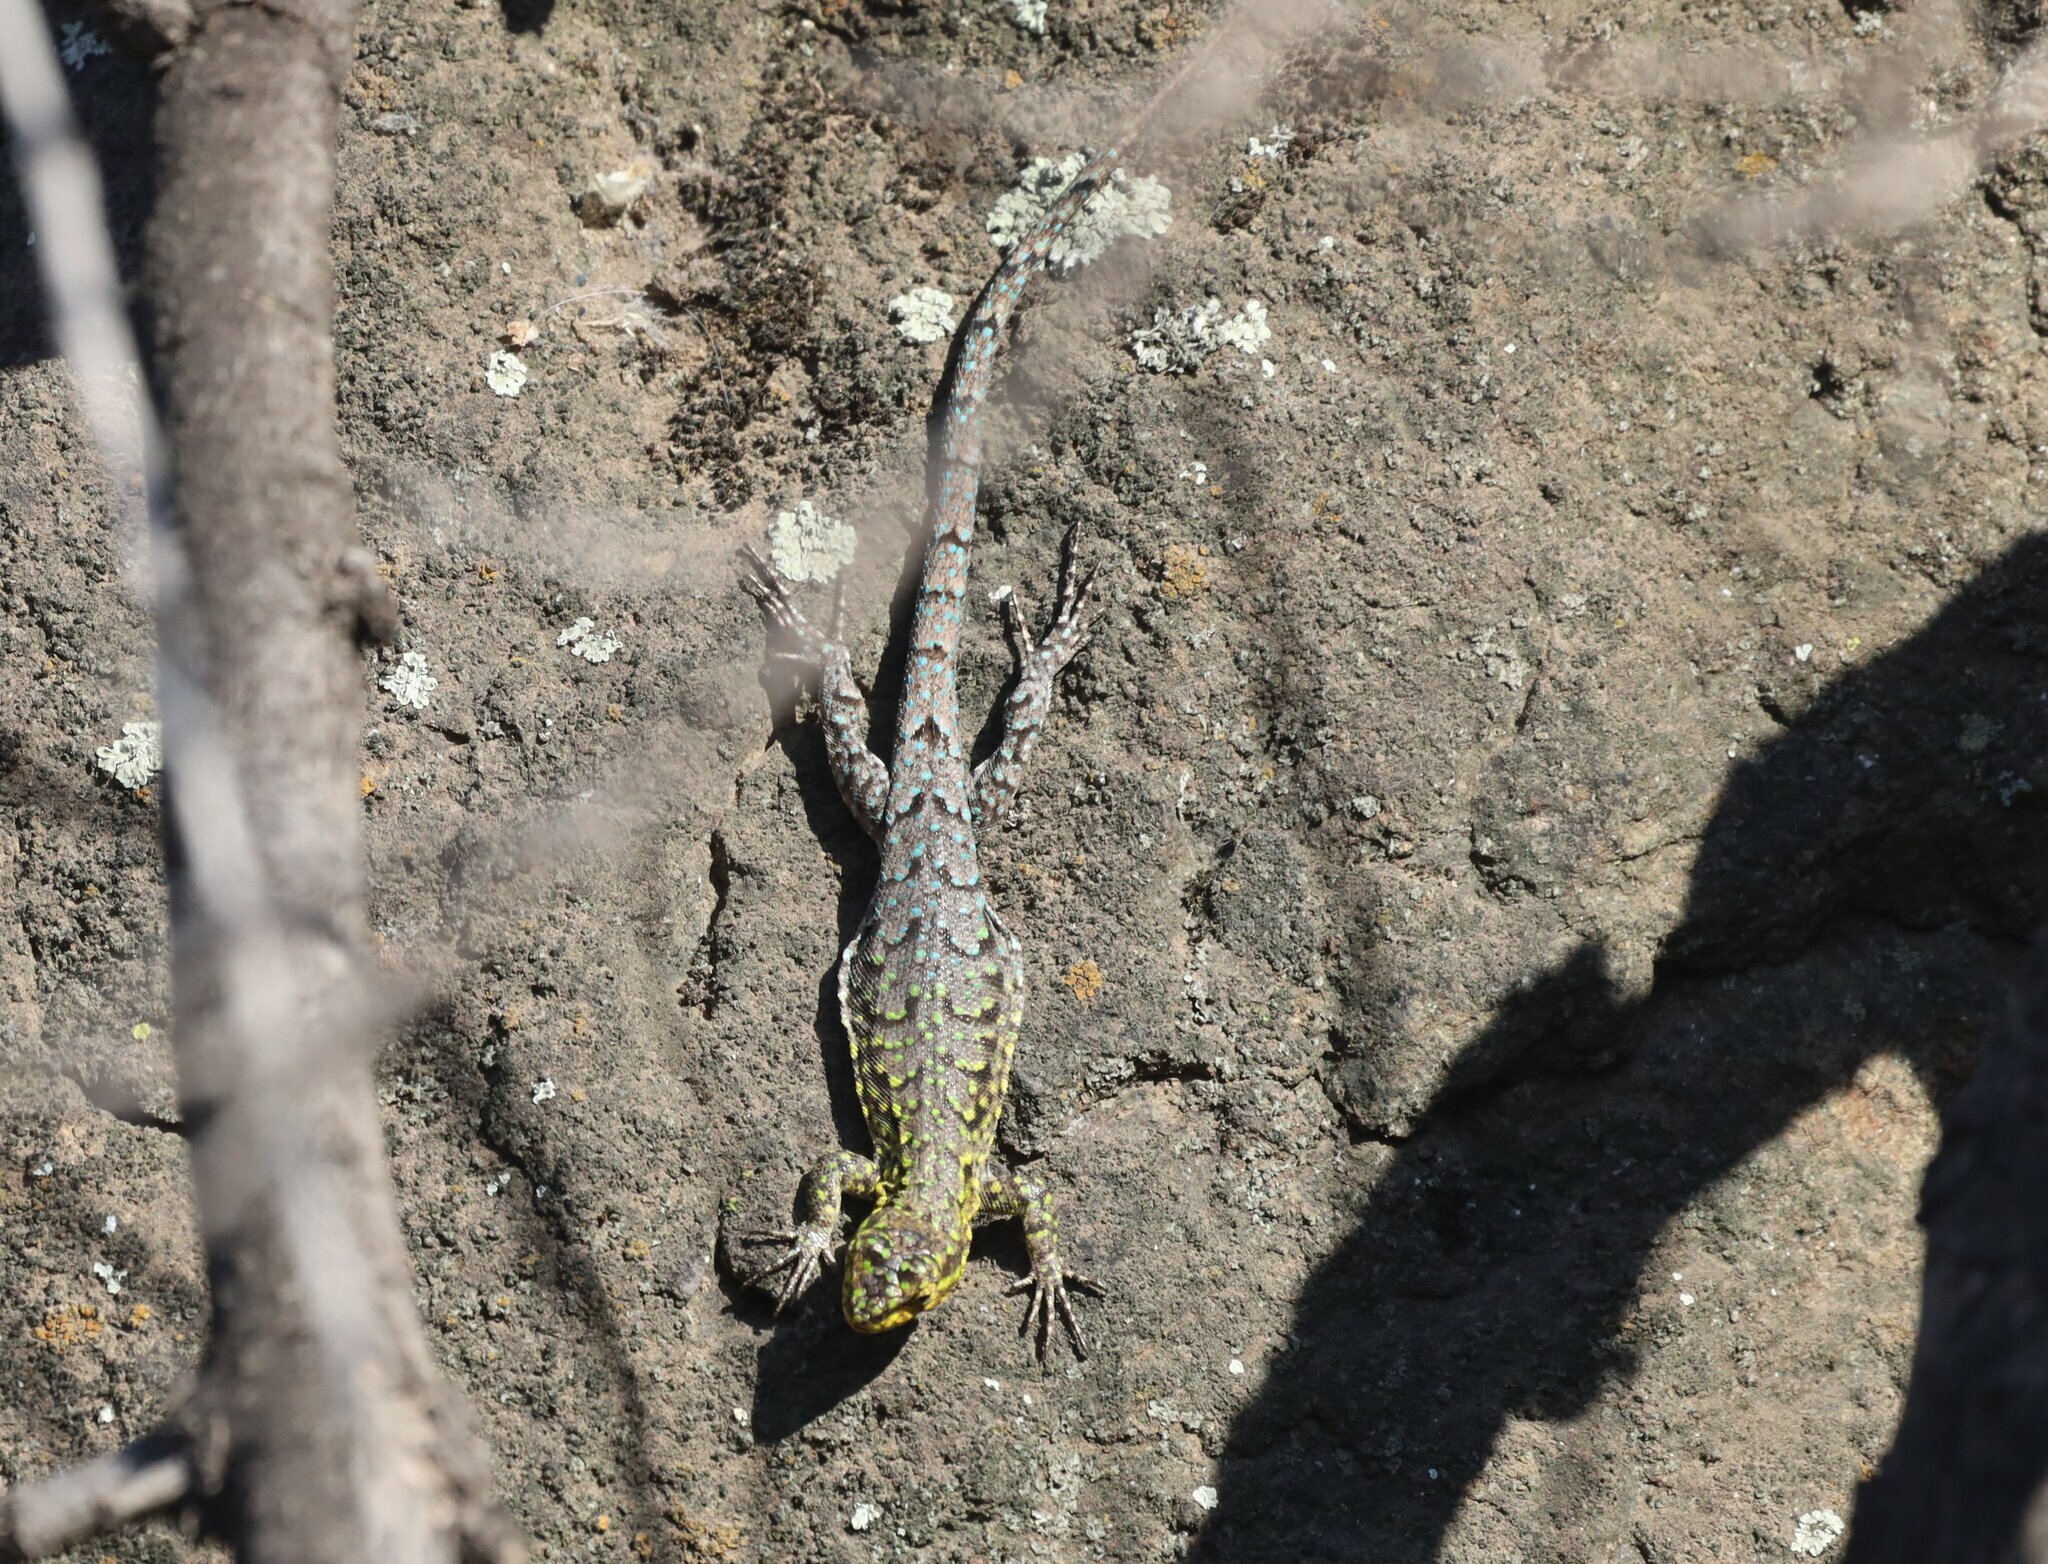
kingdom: Animalia
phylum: Chordata
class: Squamata
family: Liolaemidae
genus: Liolaemus
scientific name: Liolaemus tenuis
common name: Thin tree iguana
